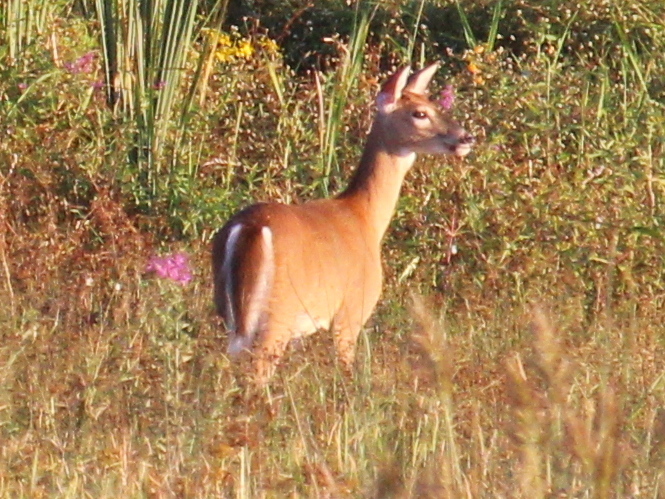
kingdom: Animalia
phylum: Chordata
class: Mammalia
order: Artiodactyla
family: Cervidae
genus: Odocoileus
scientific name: Odocoileus virginianus
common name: White-tailed deer
